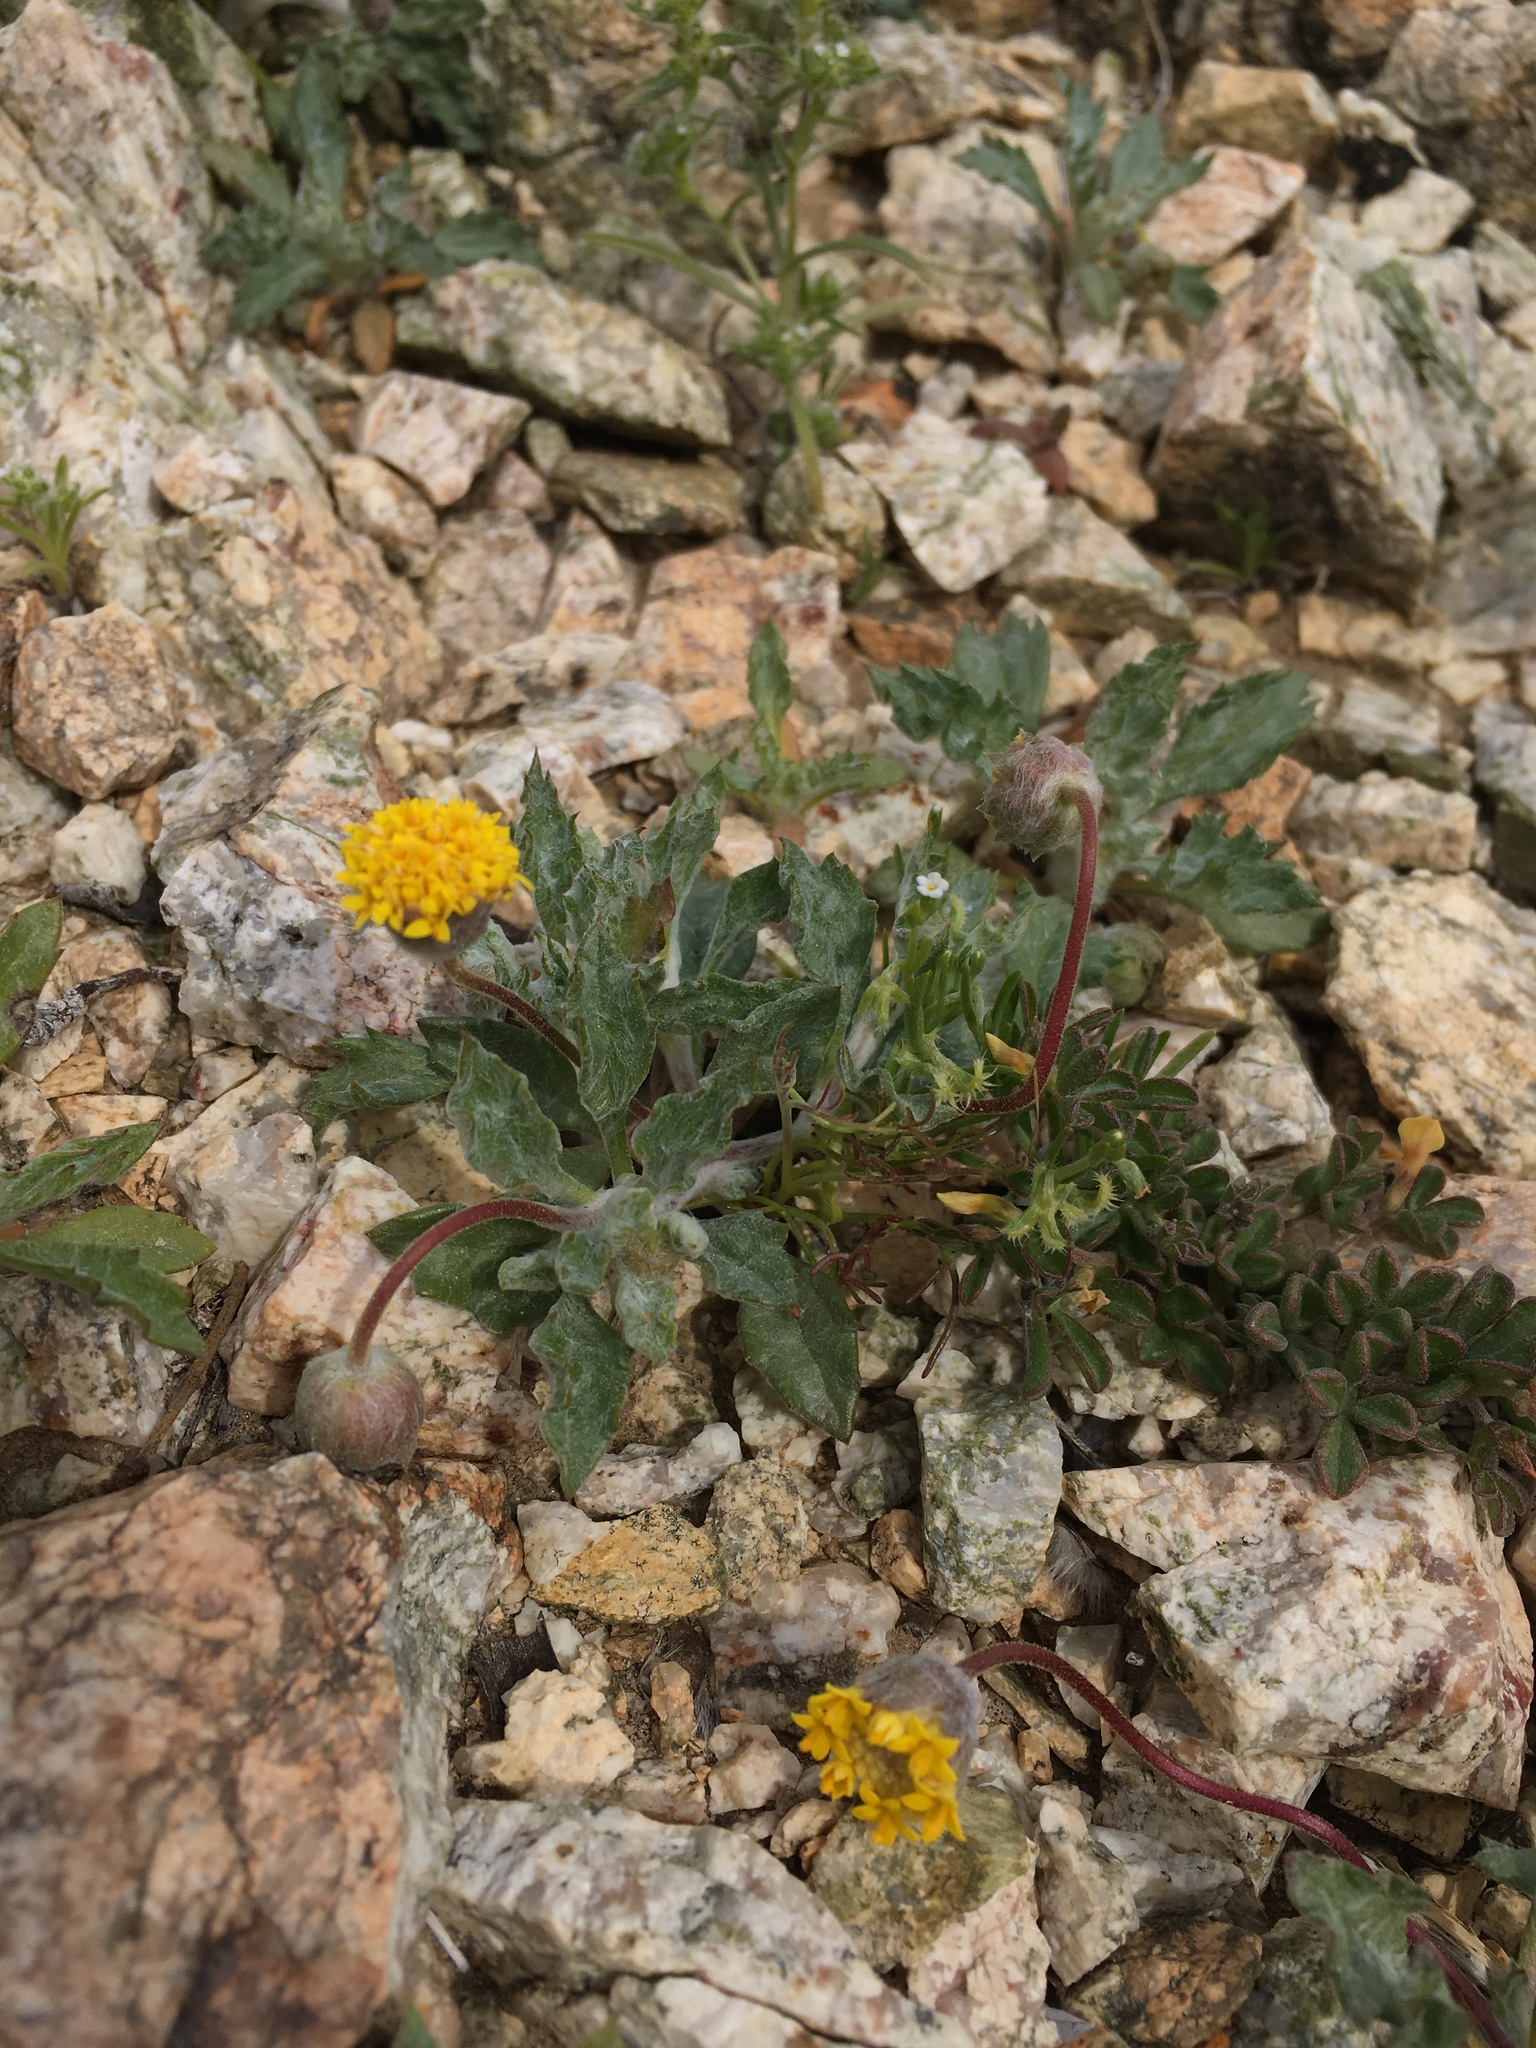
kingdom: Plantae
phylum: Tracheophyta
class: Magnoliopsida
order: Asterales
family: Asteraceae
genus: Trichoptilium
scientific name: Trichoptilium incisum
